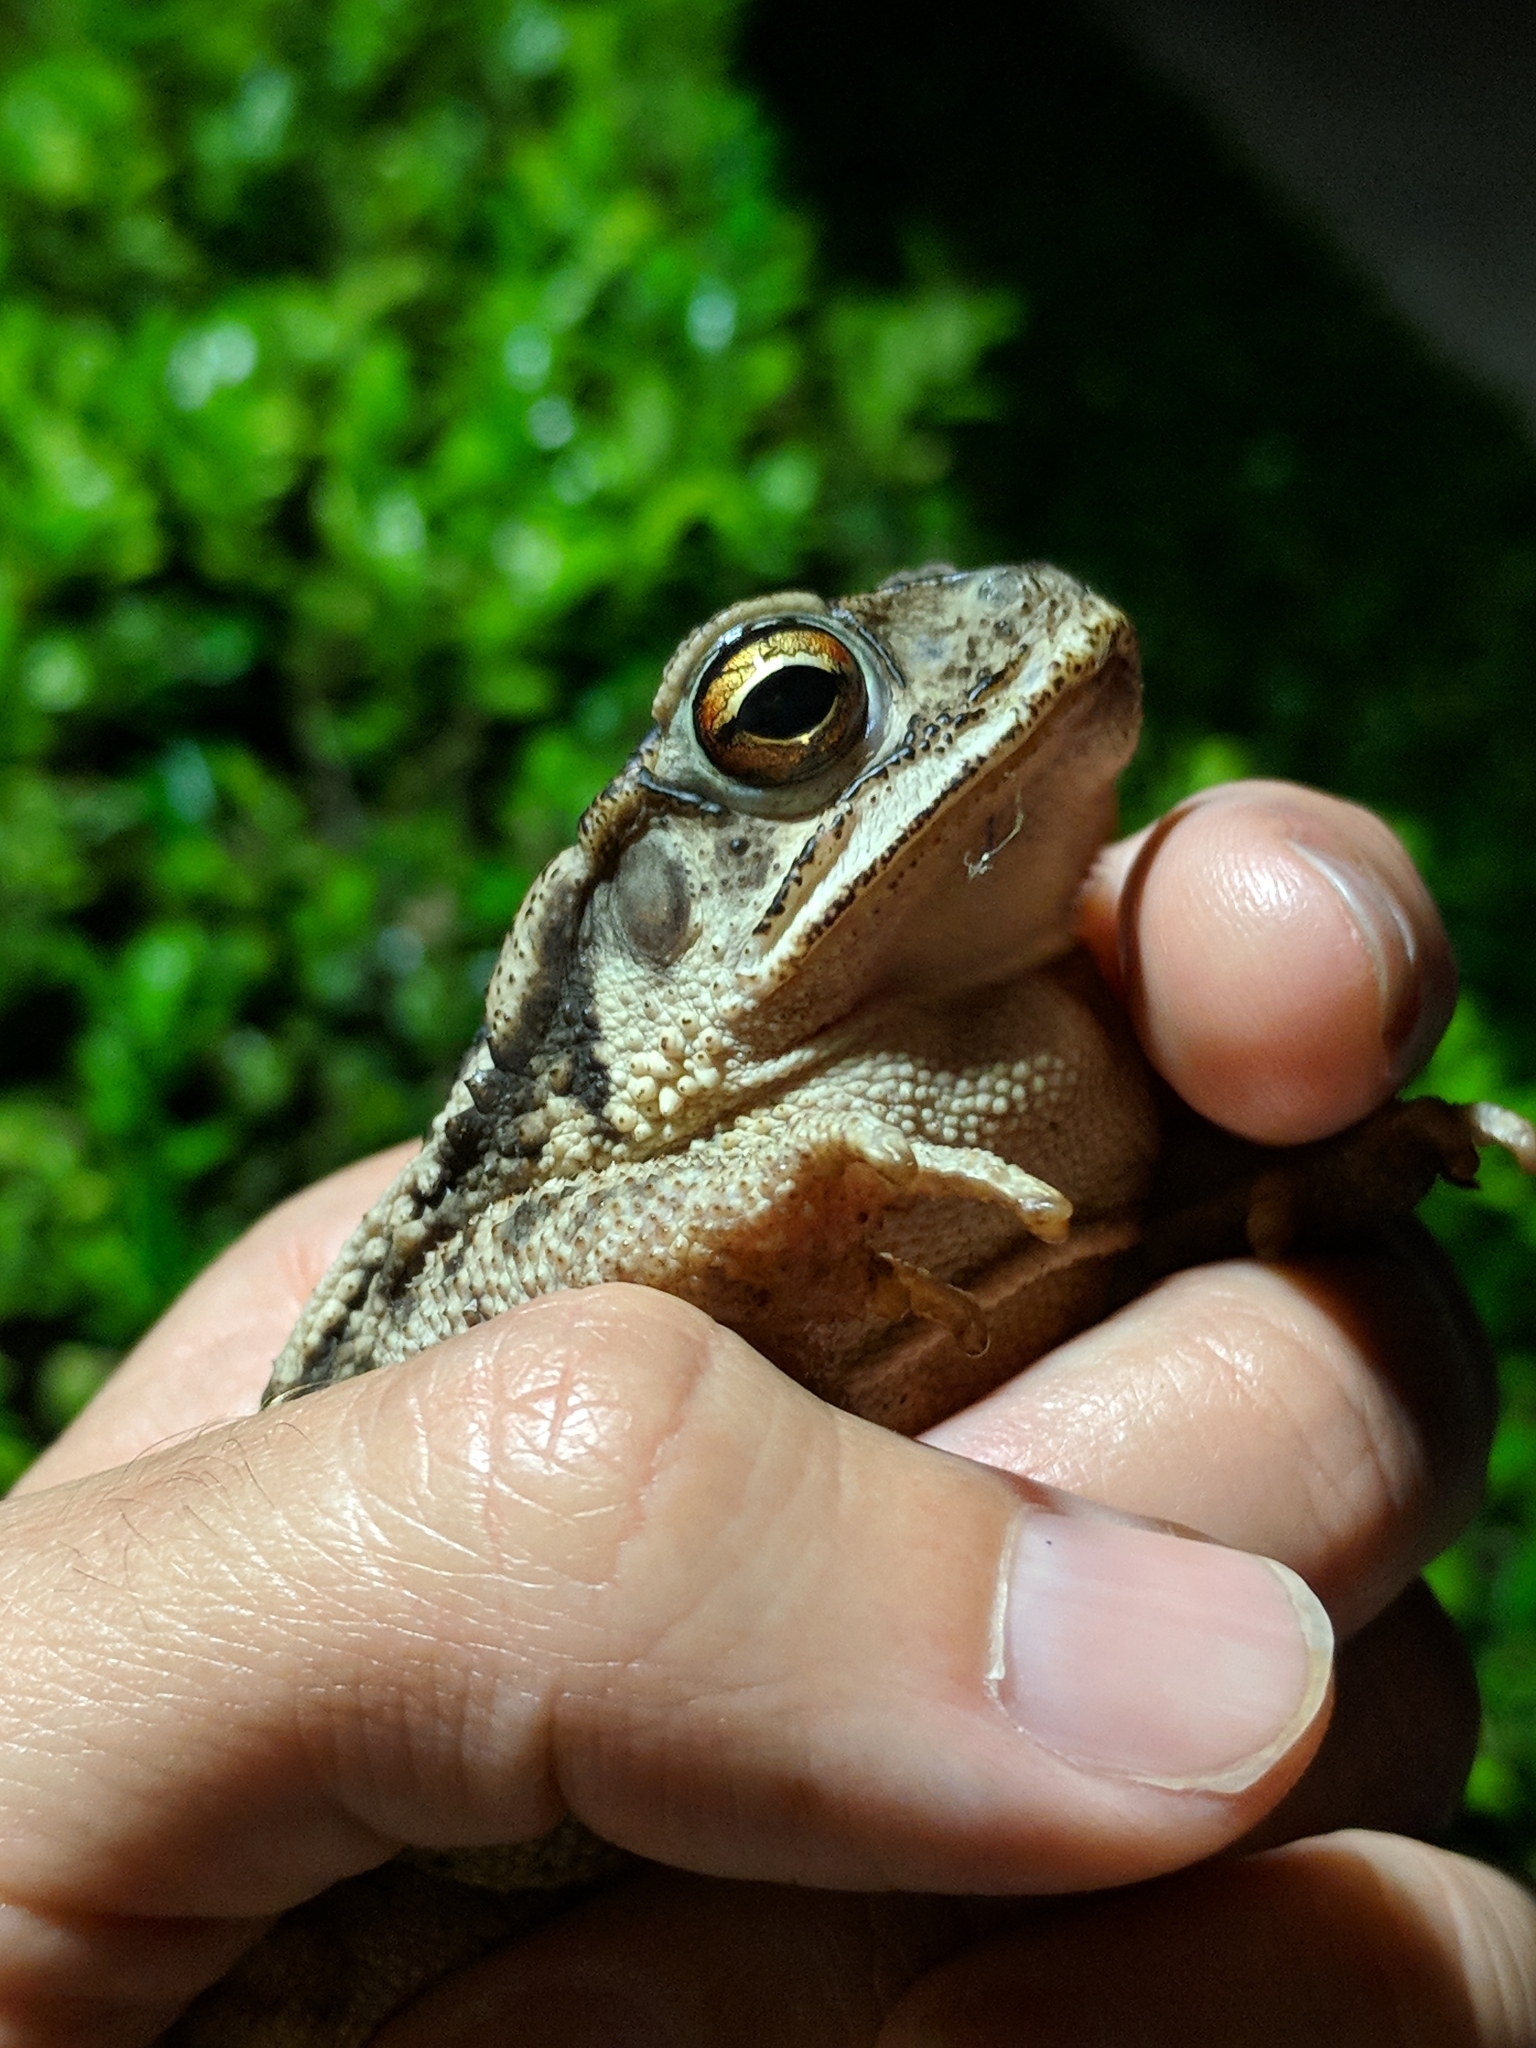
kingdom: Animalia
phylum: Chordata
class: Amphibia
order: Anura
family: Bufonidae
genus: Incilius
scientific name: Incilius nebulifer
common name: Gulf coast toad
